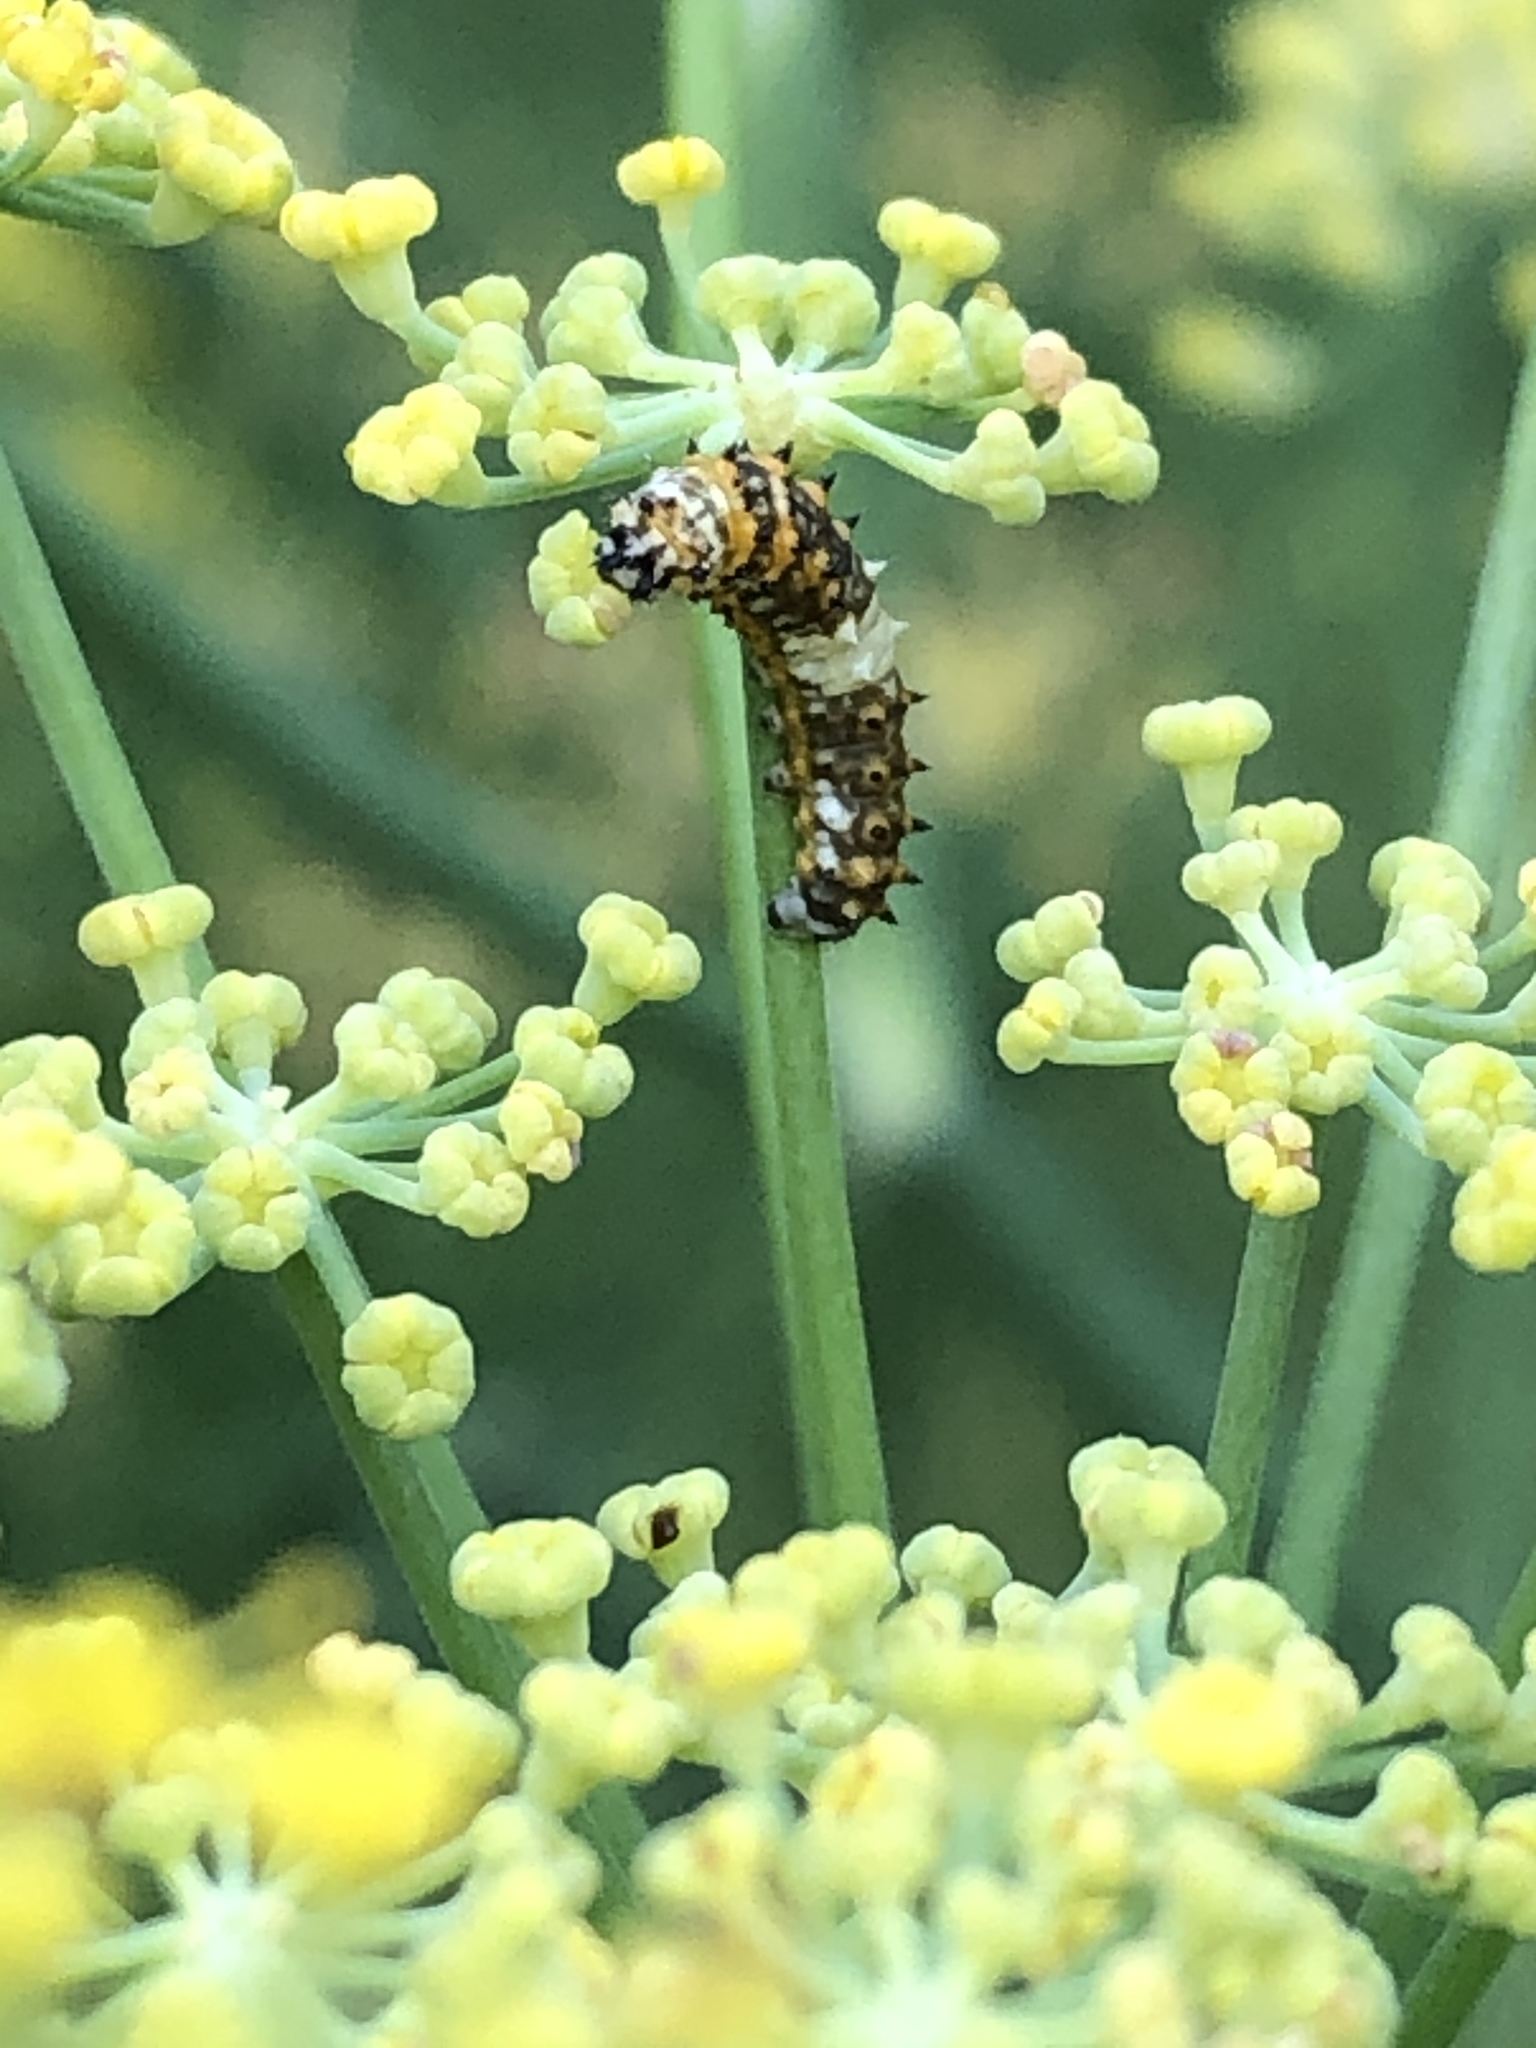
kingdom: Animalia
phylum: Arthropoda
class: Insecta
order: Lepidoptera
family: Papilionidae
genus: Papilio
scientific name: Papilio polyxenes
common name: Black swallowtail
